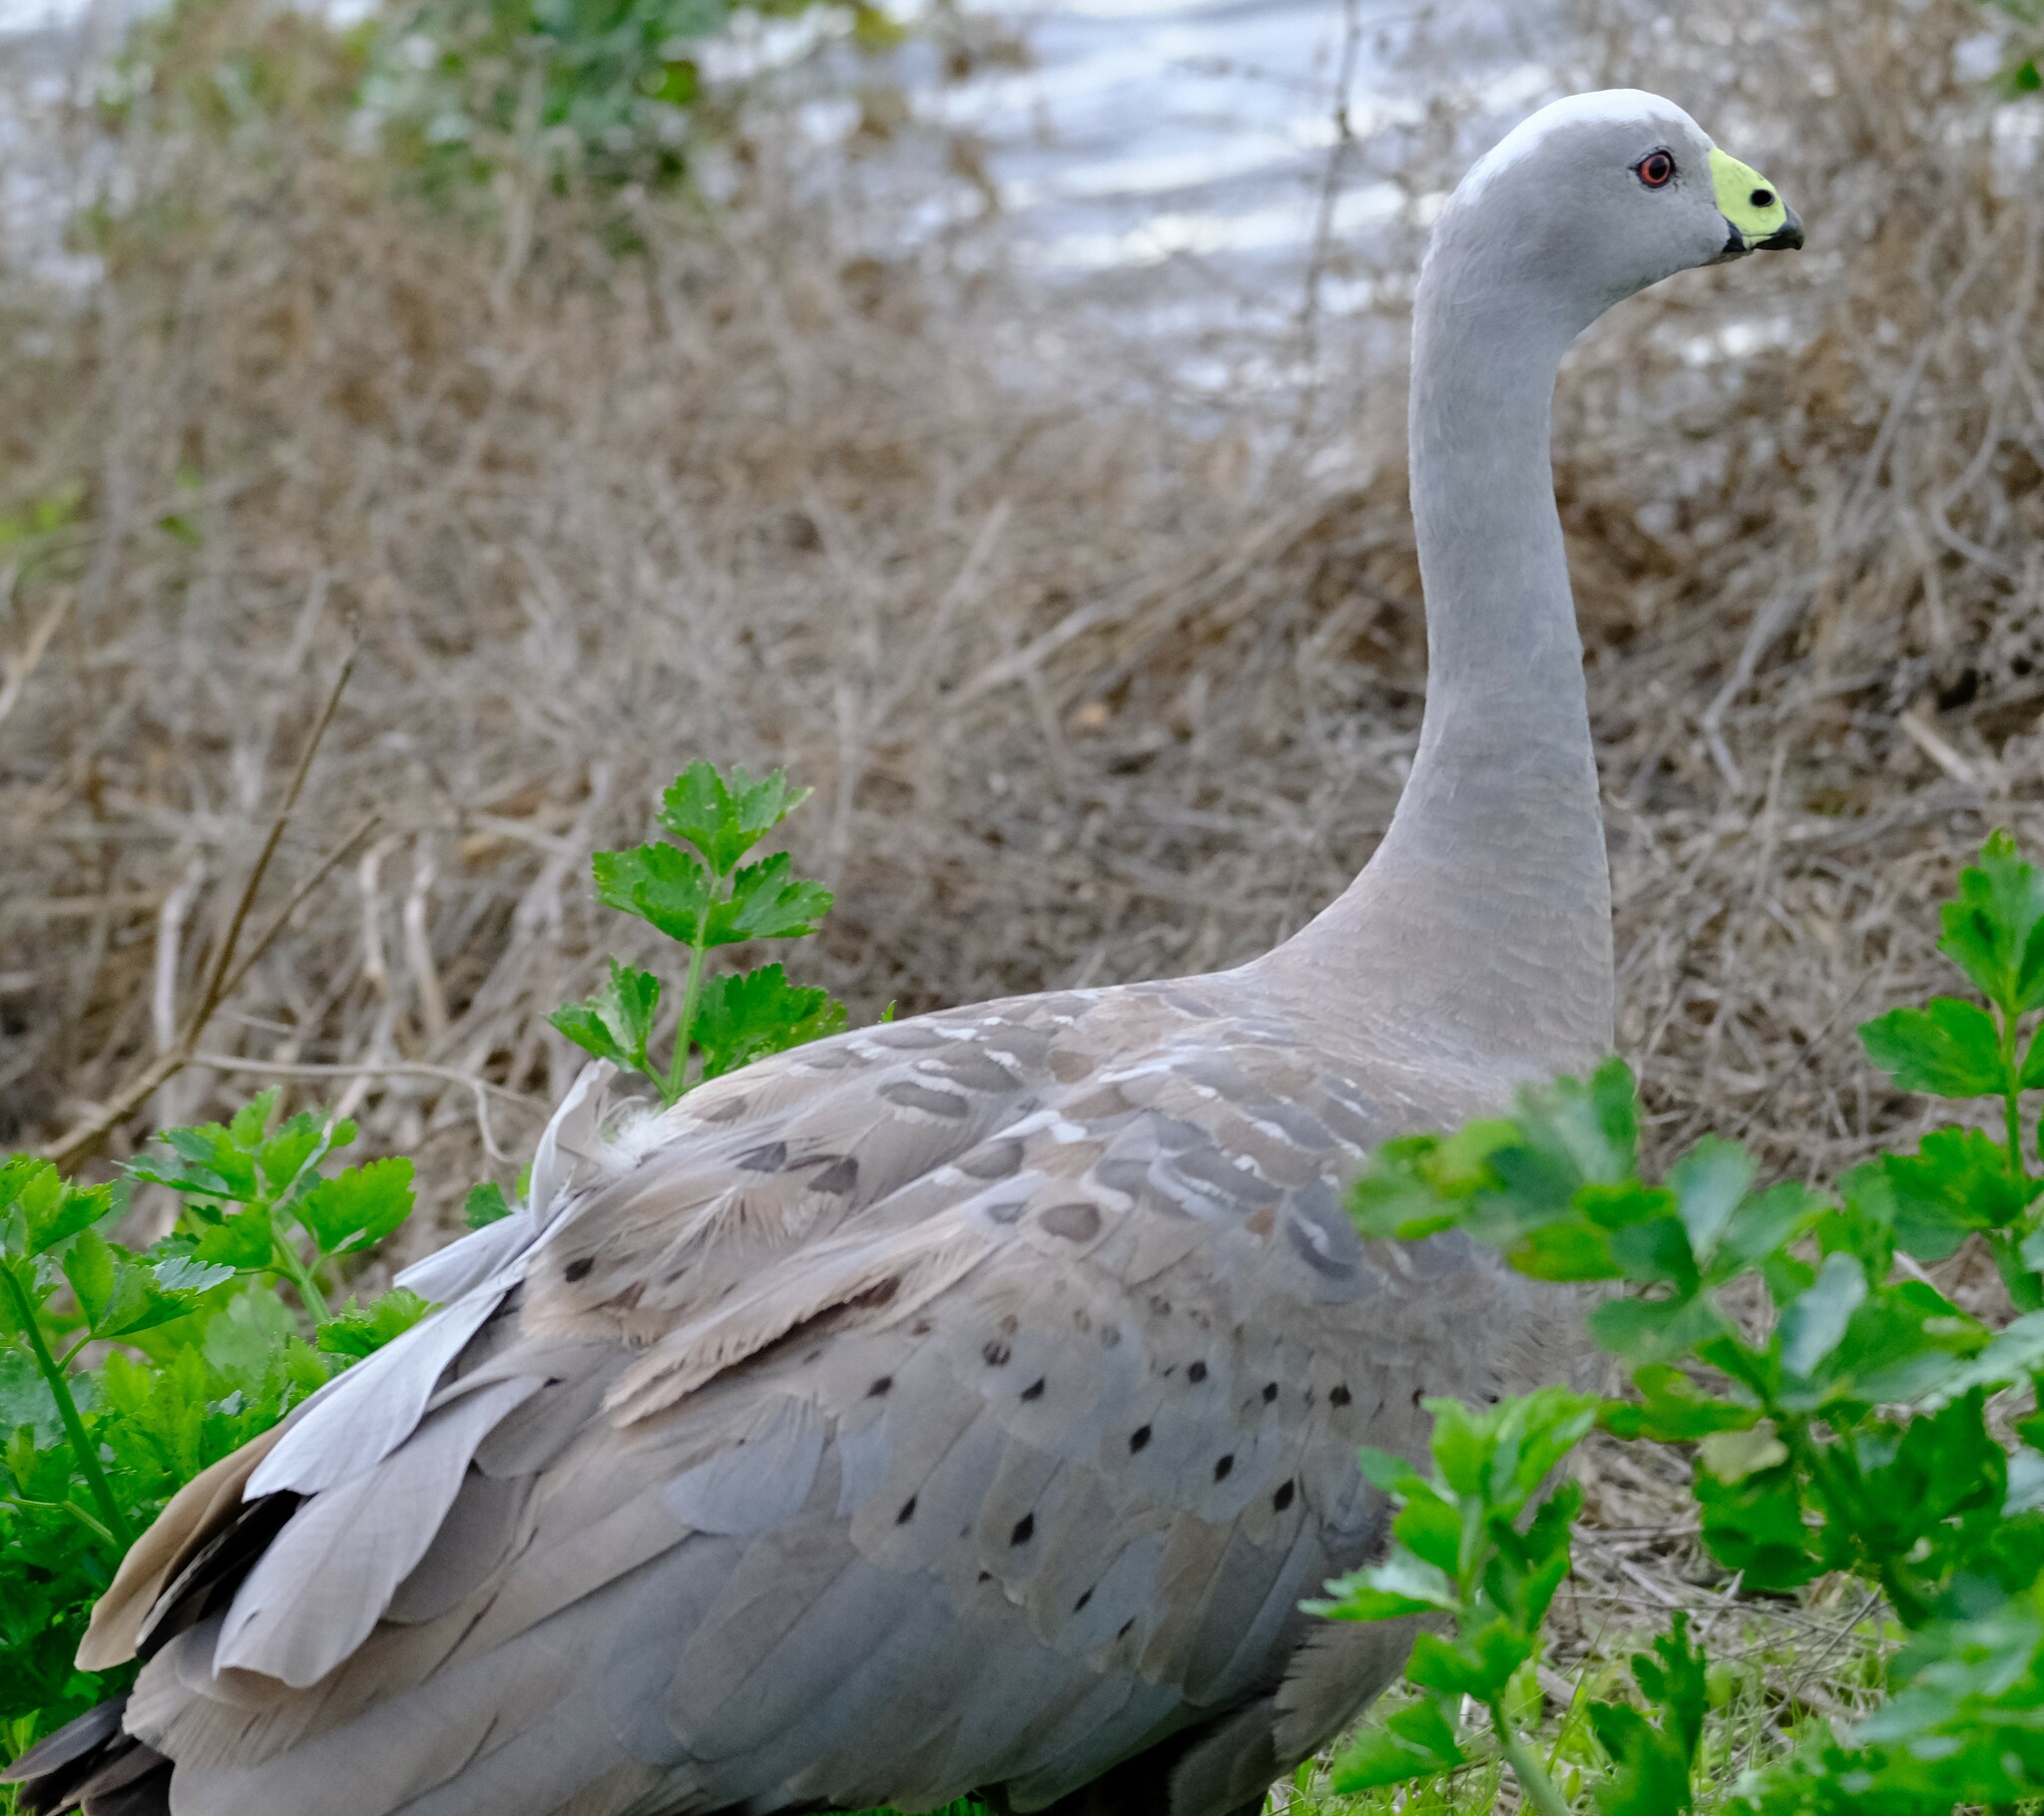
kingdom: Animalia
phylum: Chordata
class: Aves
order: Anseriformes
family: Anatidae
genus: Cereopsis
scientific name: Cereopsis novaehollandiae
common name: Cape barren goose
